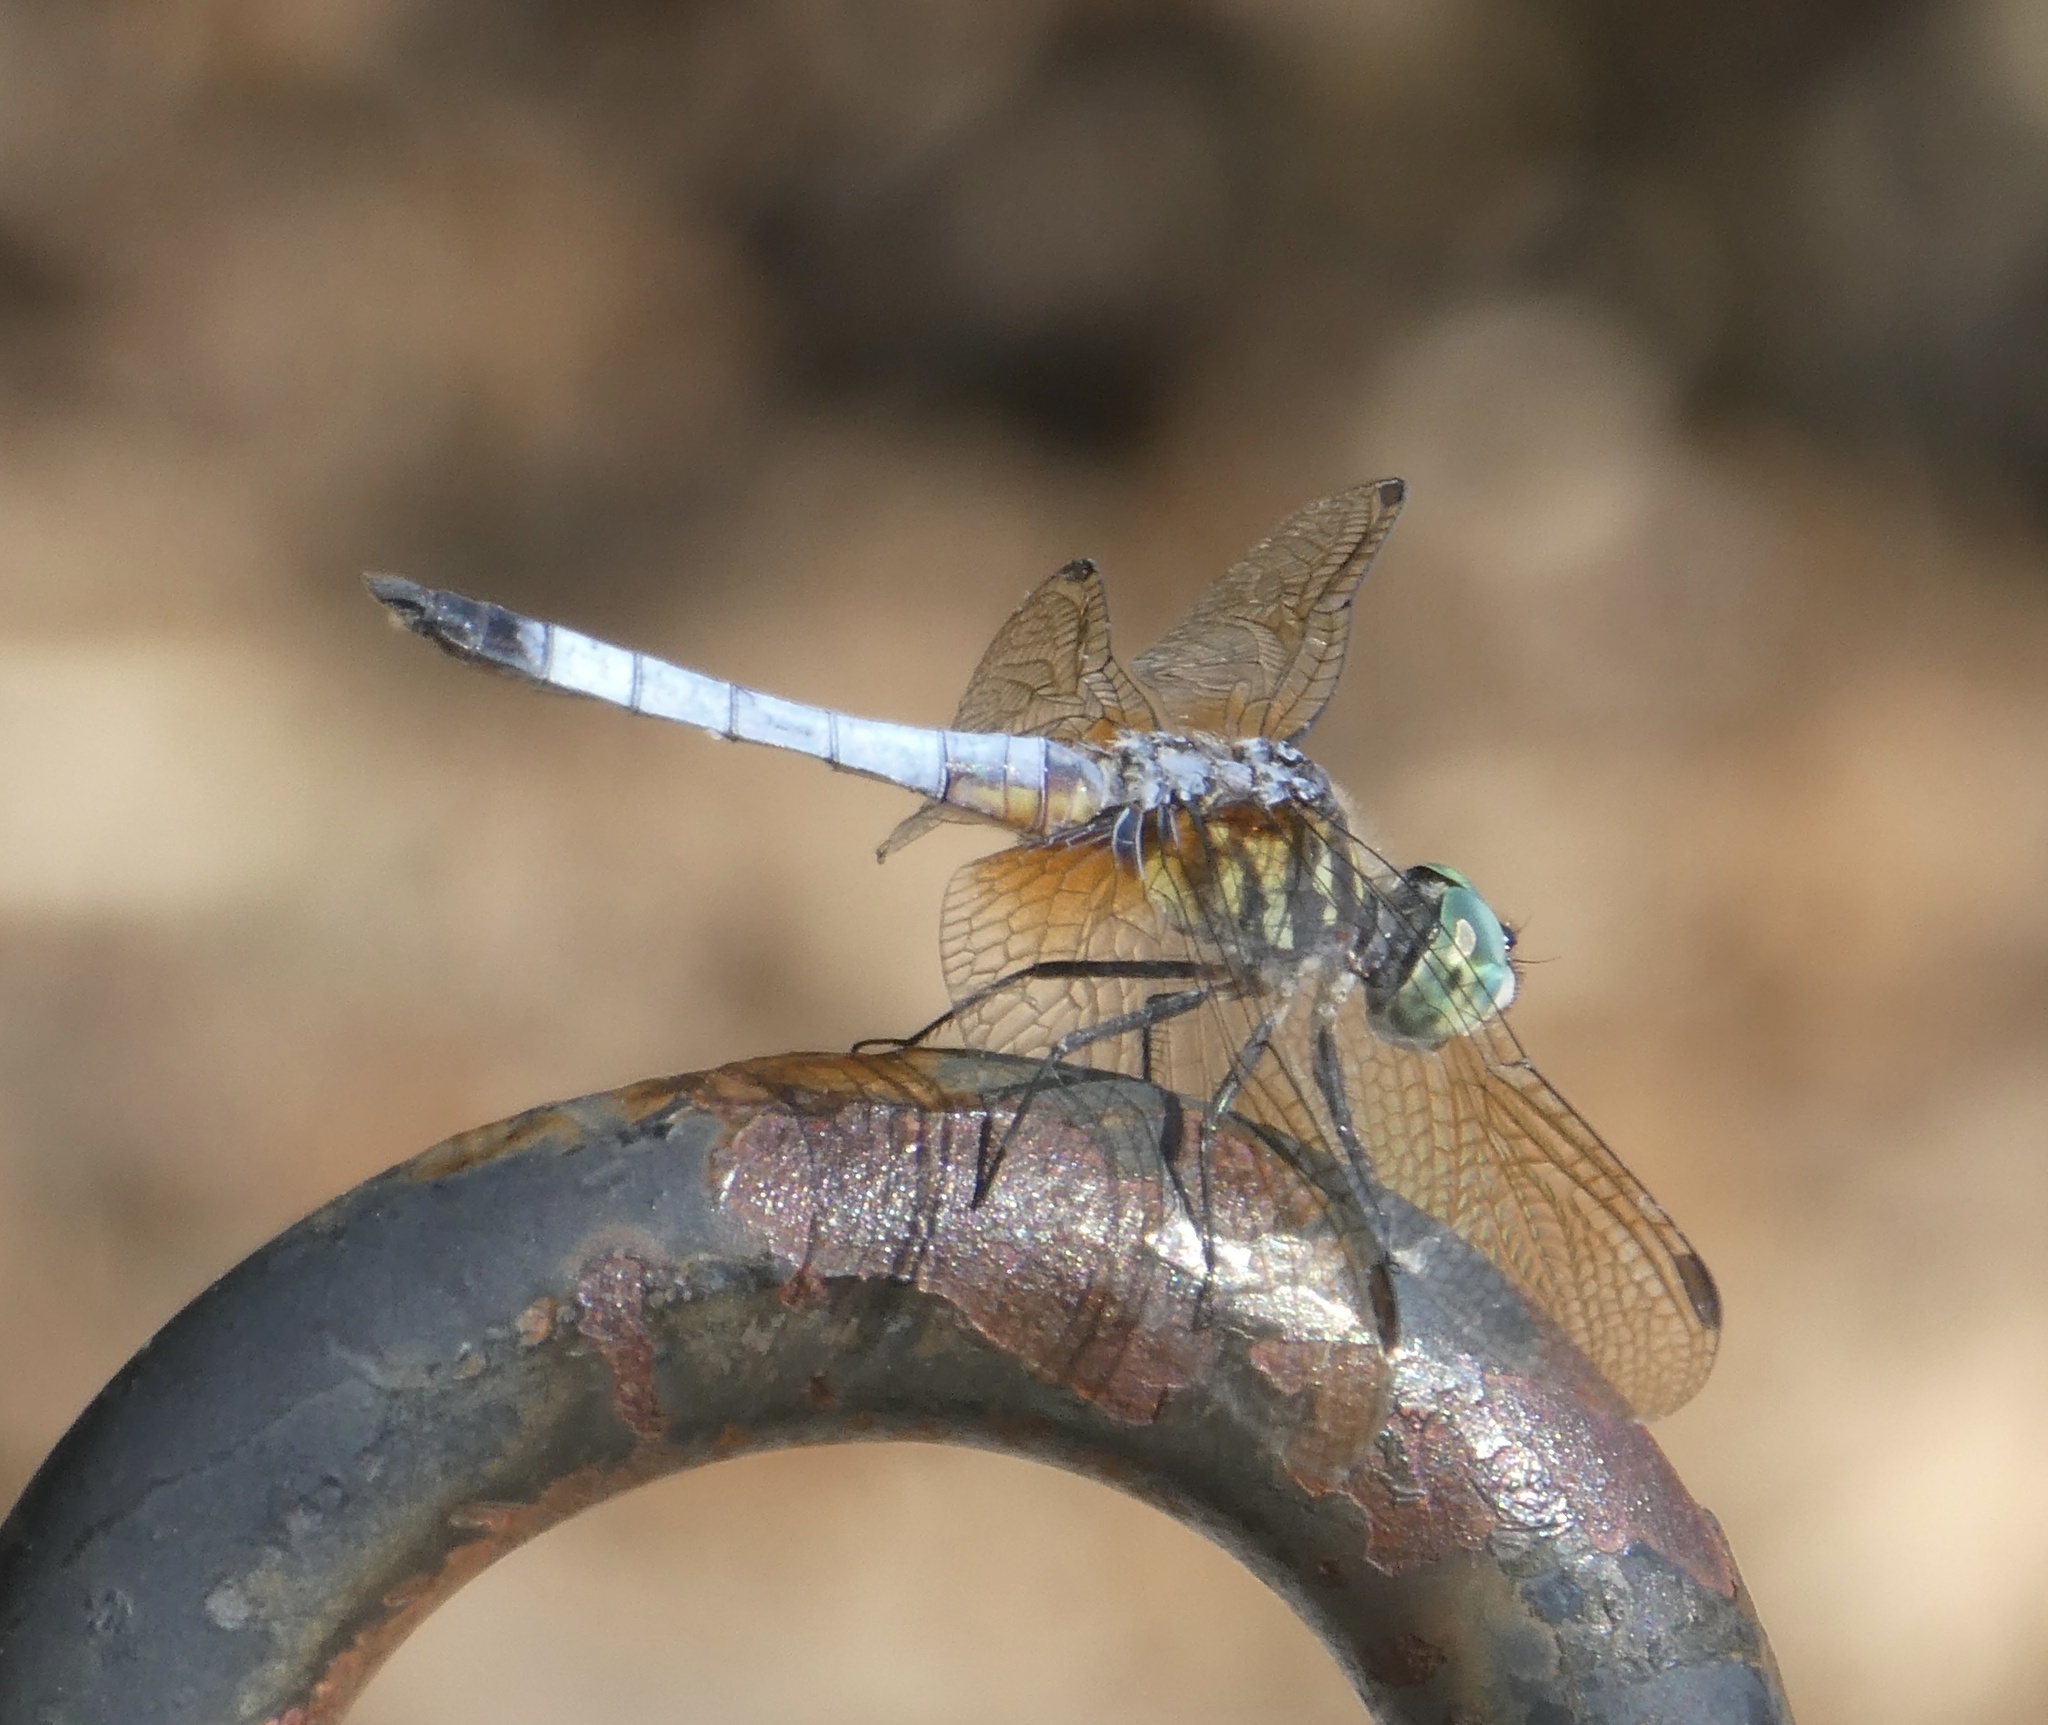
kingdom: Animalia
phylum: Arthropoda
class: Insecta
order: Odonata
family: Libellulidae
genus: Pachydiplax
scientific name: Pachydiplax longipennis
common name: Blue dasher
